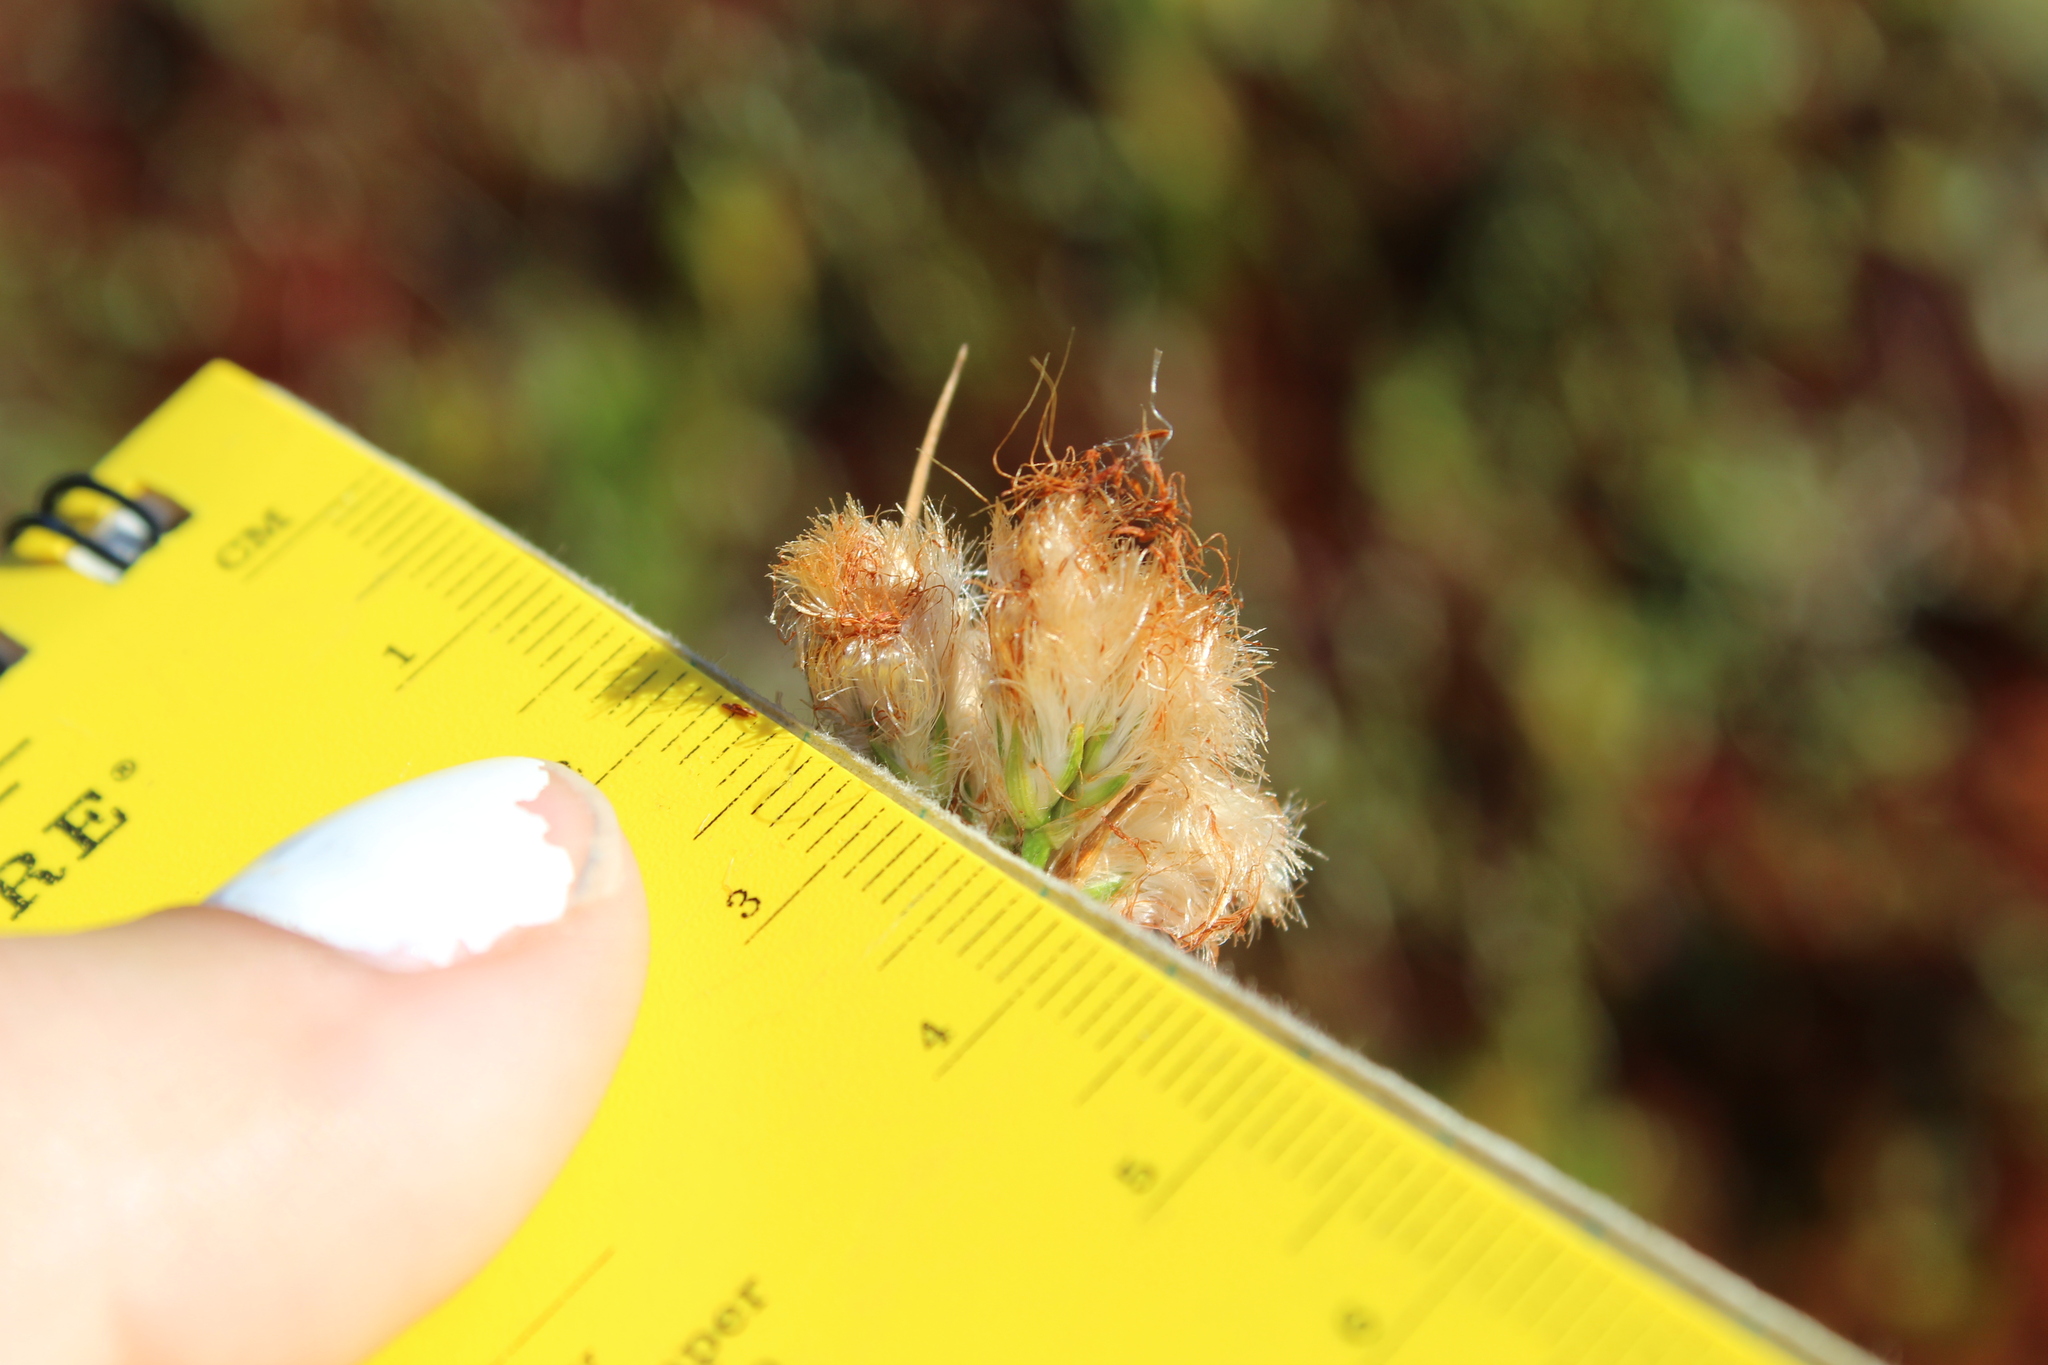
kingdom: Plantae
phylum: Tracheophyta
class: Liliopsida
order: Poales
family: Cyperaceae
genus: Eriophorum
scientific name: Eriophorum virginicum
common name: Tawny cottongrass
